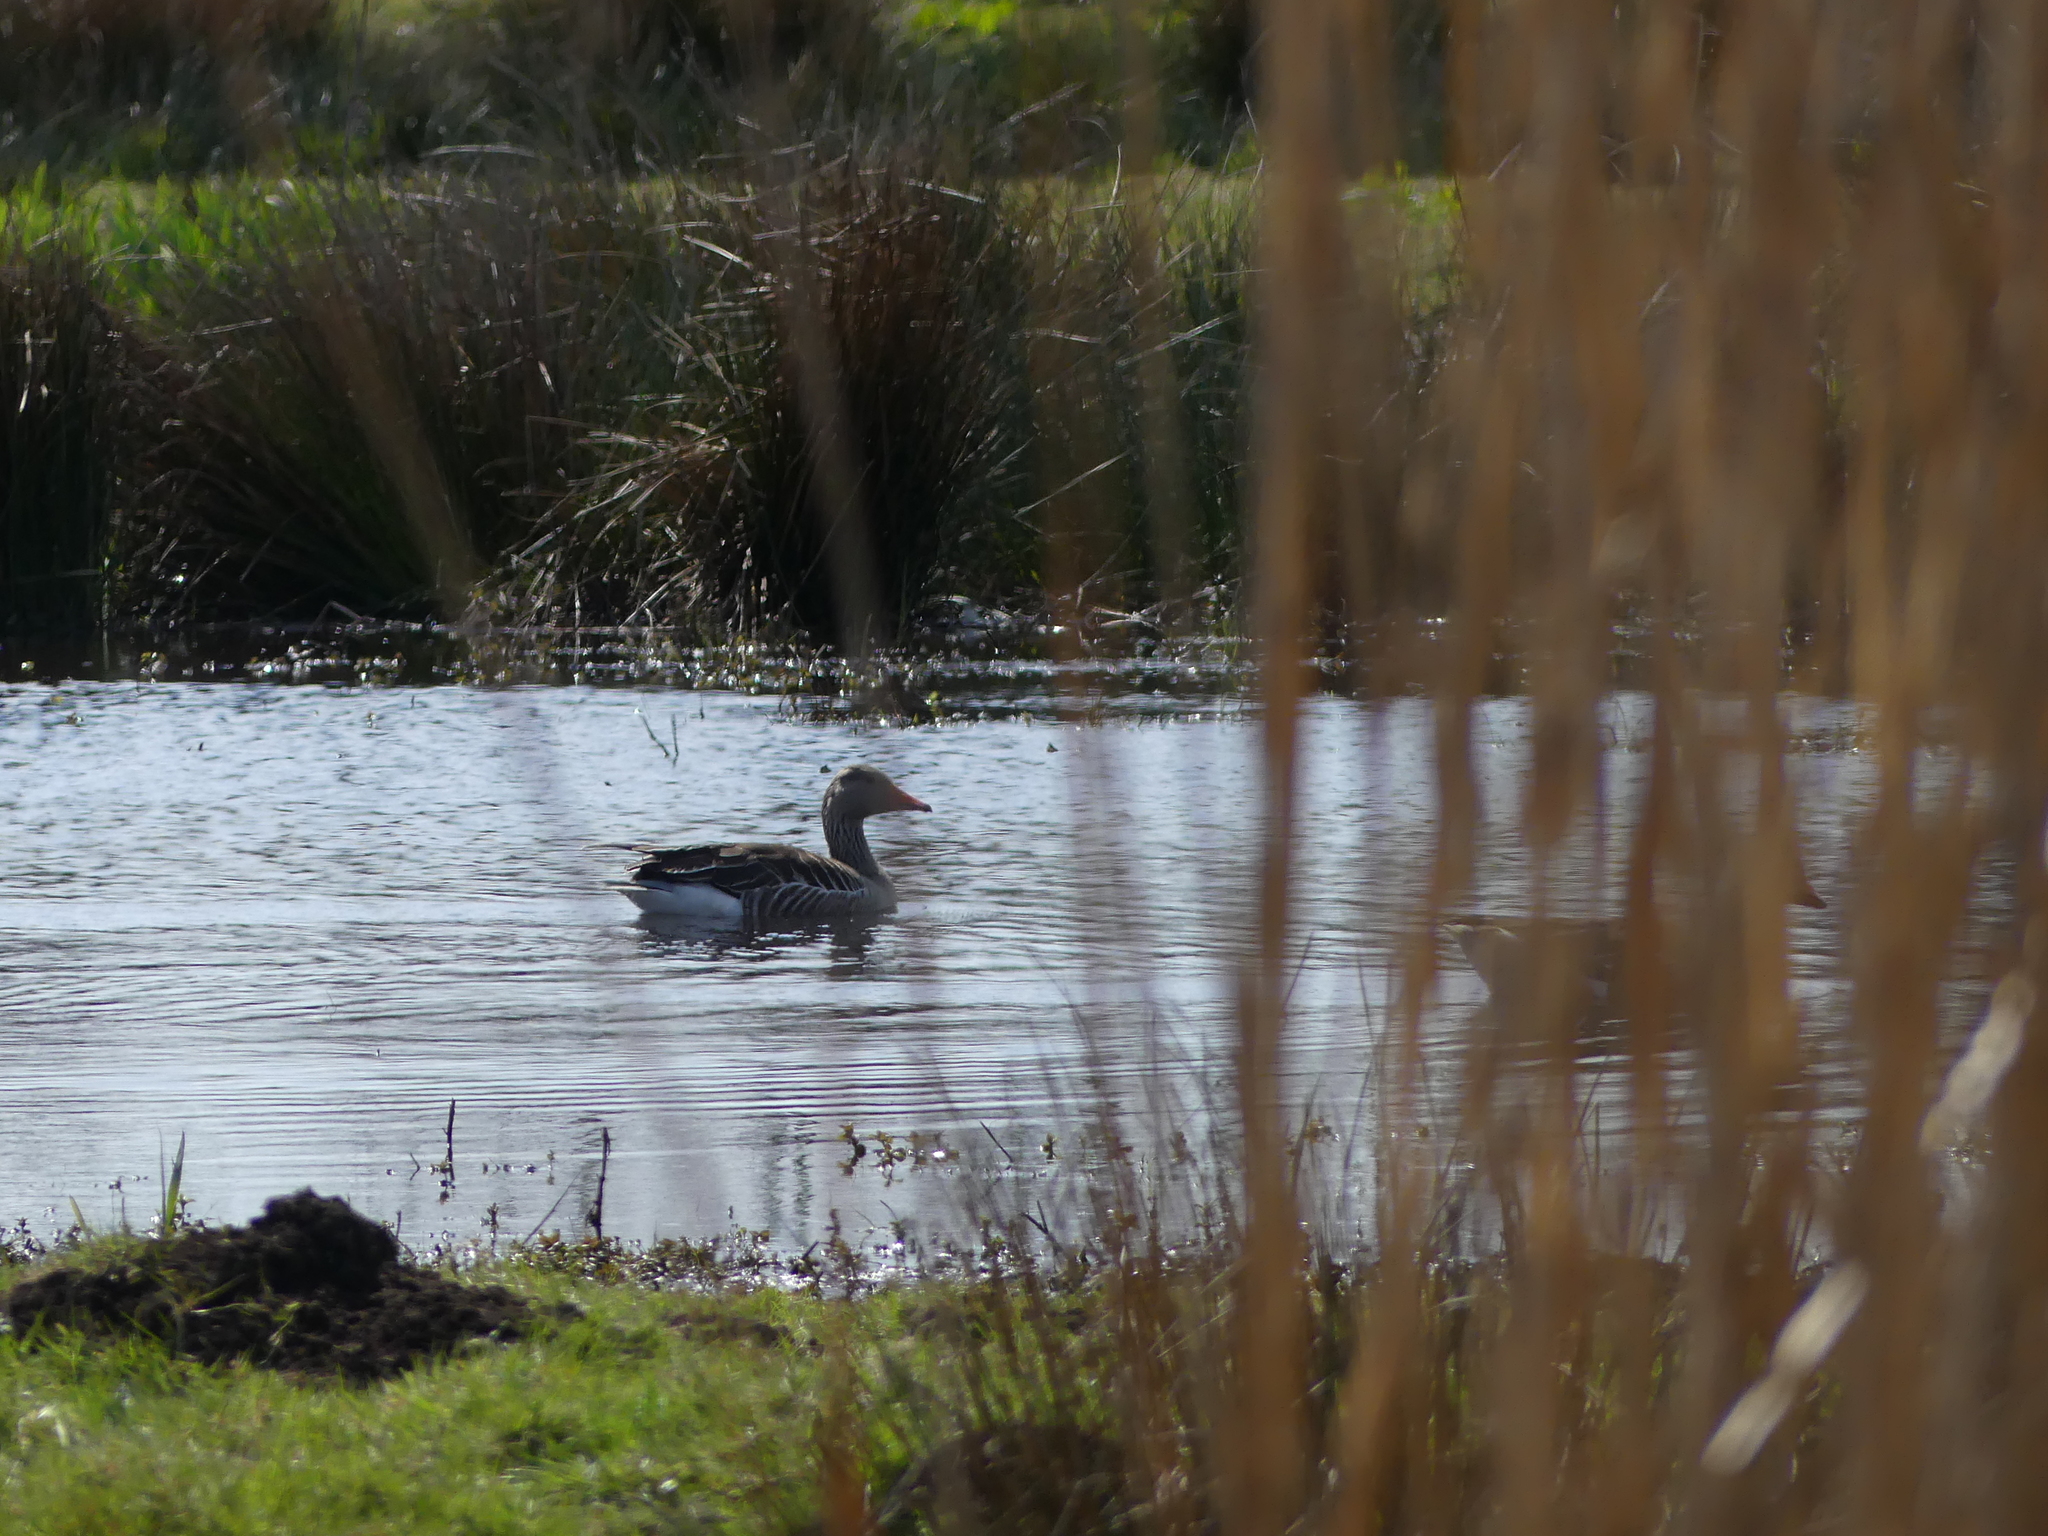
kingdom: Animalia
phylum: Chordata
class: Aves
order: Anseriformes
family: Anatidae
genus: Anser
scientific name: Anser anser
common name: Greylag goose
